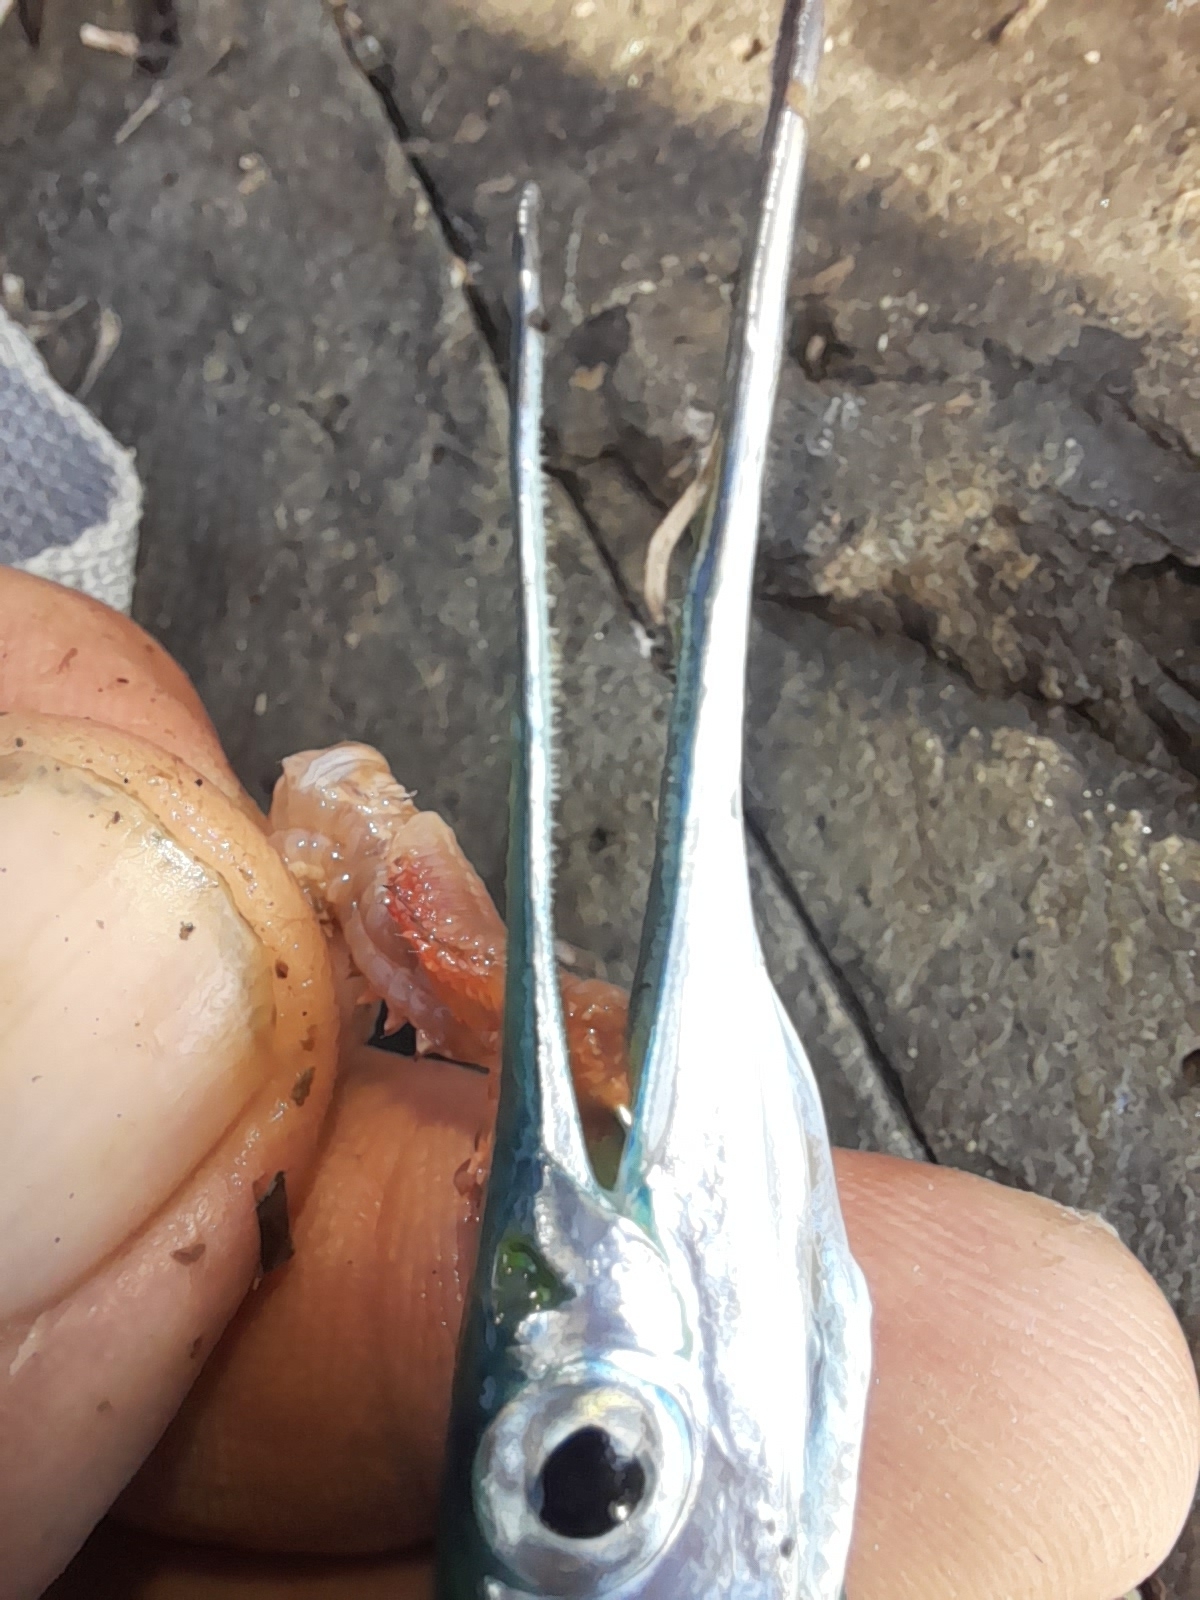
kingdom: Animalia
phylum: Chordata
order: Beloniformes
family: Belonidae
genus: Belone
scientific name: Belone belone
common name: Garfish
